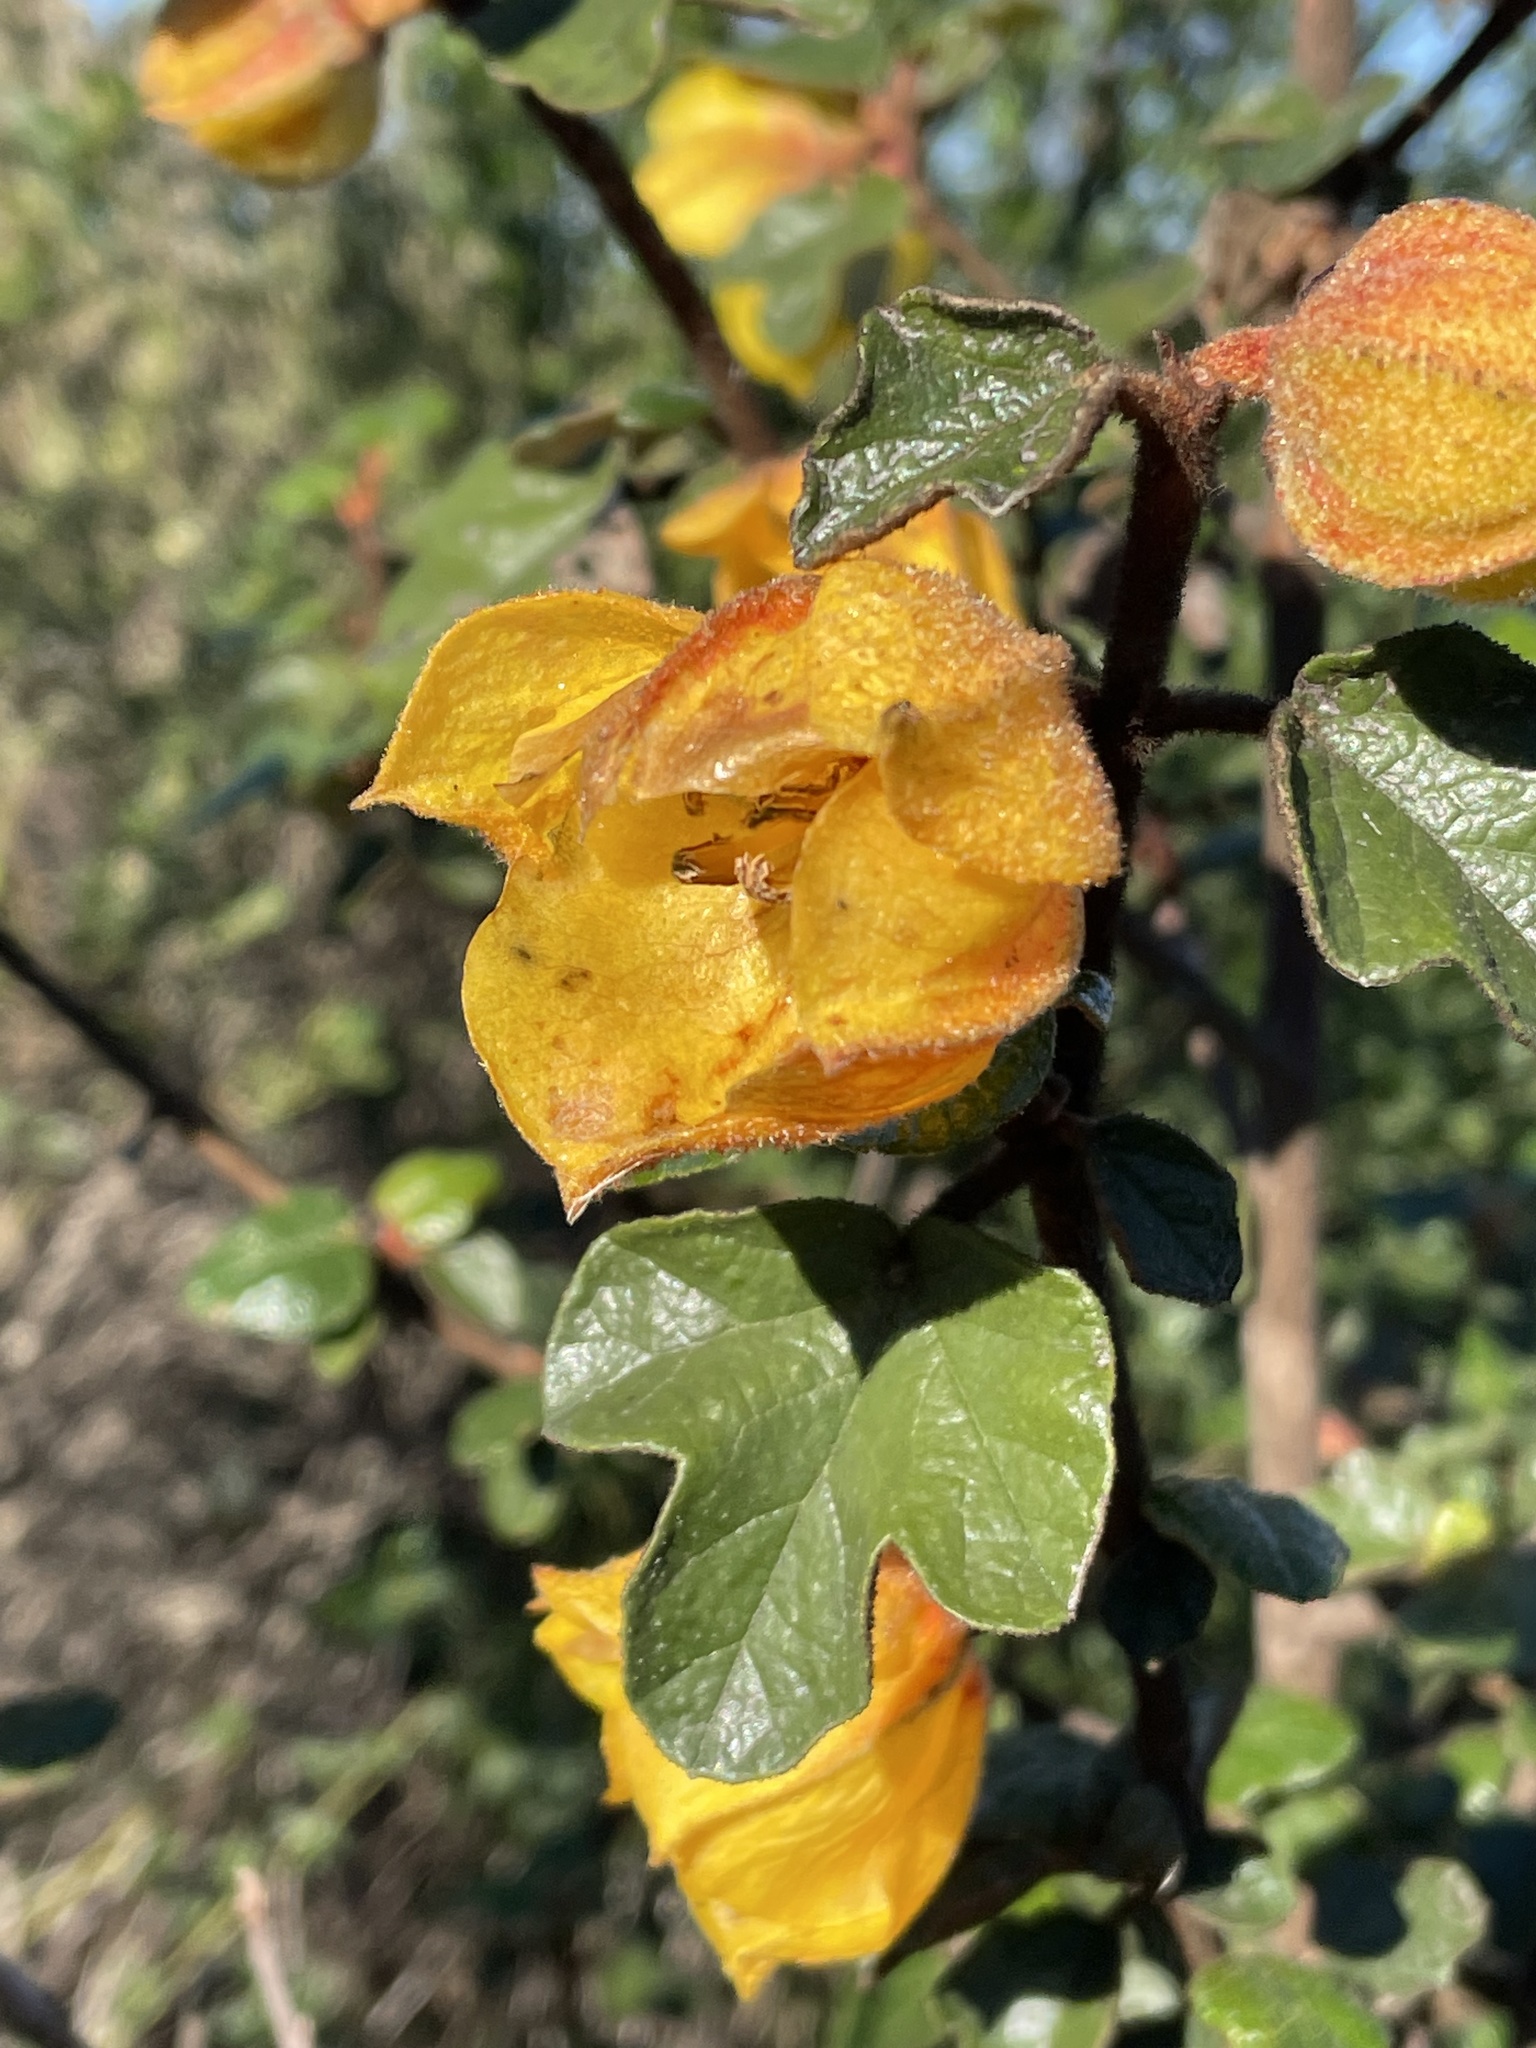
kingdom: Plantae
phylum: Tracheophyta
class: Magnoliopsida
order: Malvales
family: Malvaceae
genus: Fremontodendron
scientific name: Fremontodendron californicum
